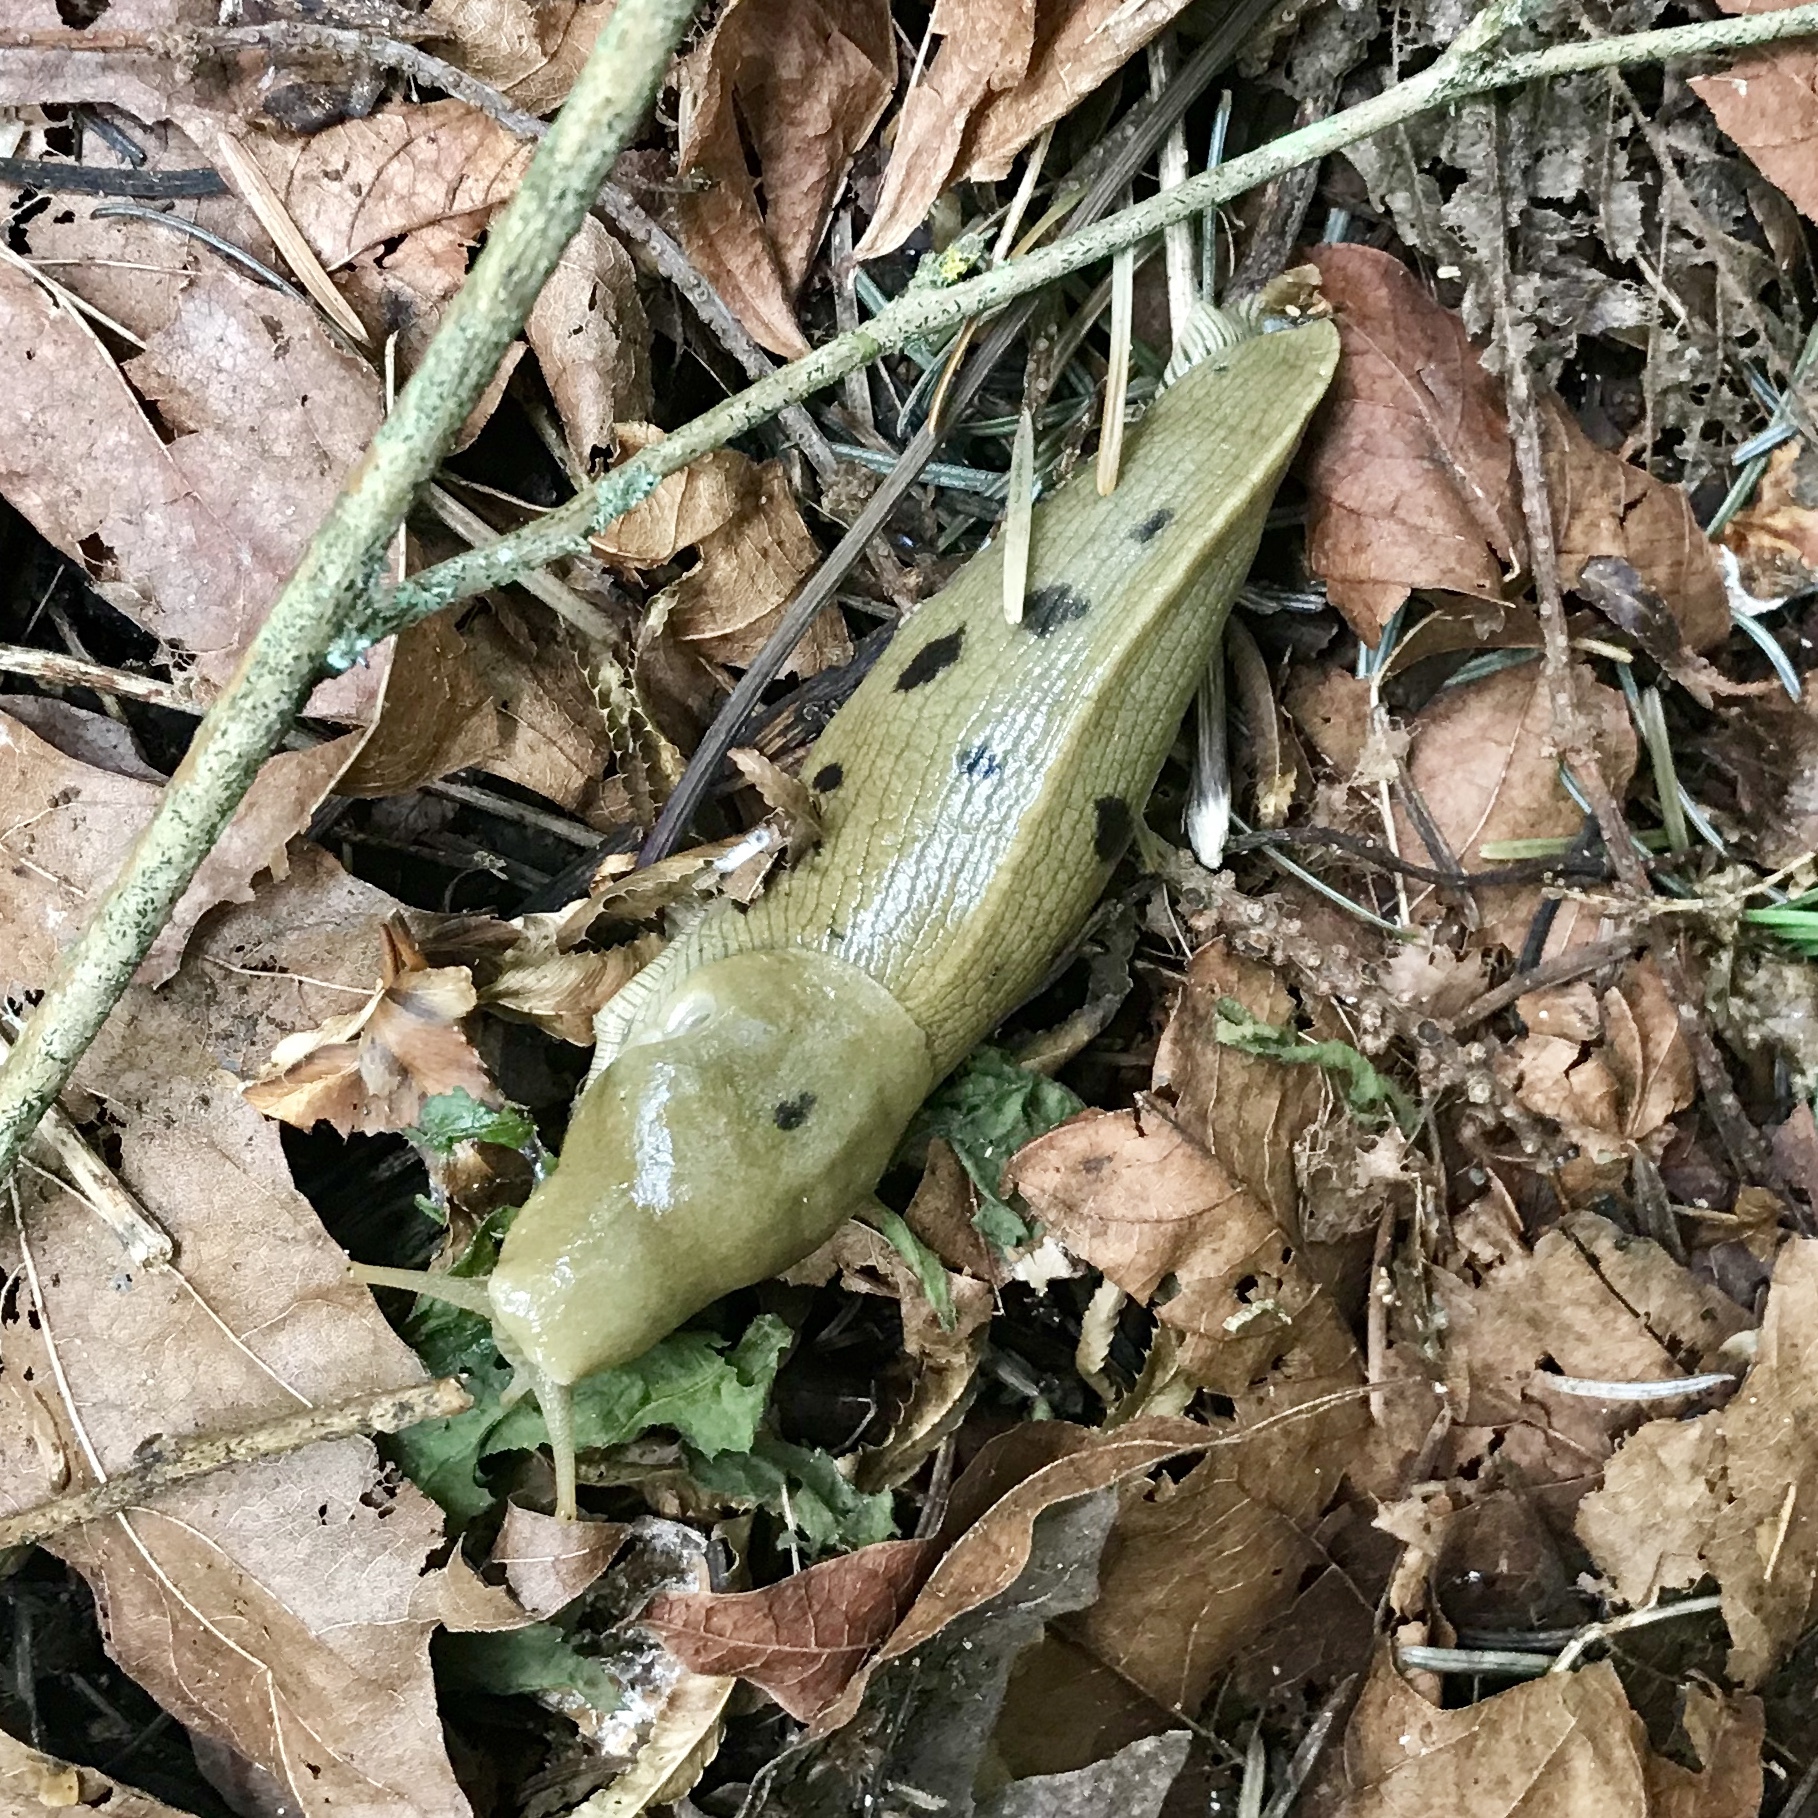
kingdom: Animalia
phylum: Mollusca
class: Gastropoda
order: Stylommatophora
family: Ariolimacidae
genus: Ariolimax
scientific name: Ariolimax columbianus
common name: Pacific banana slug
